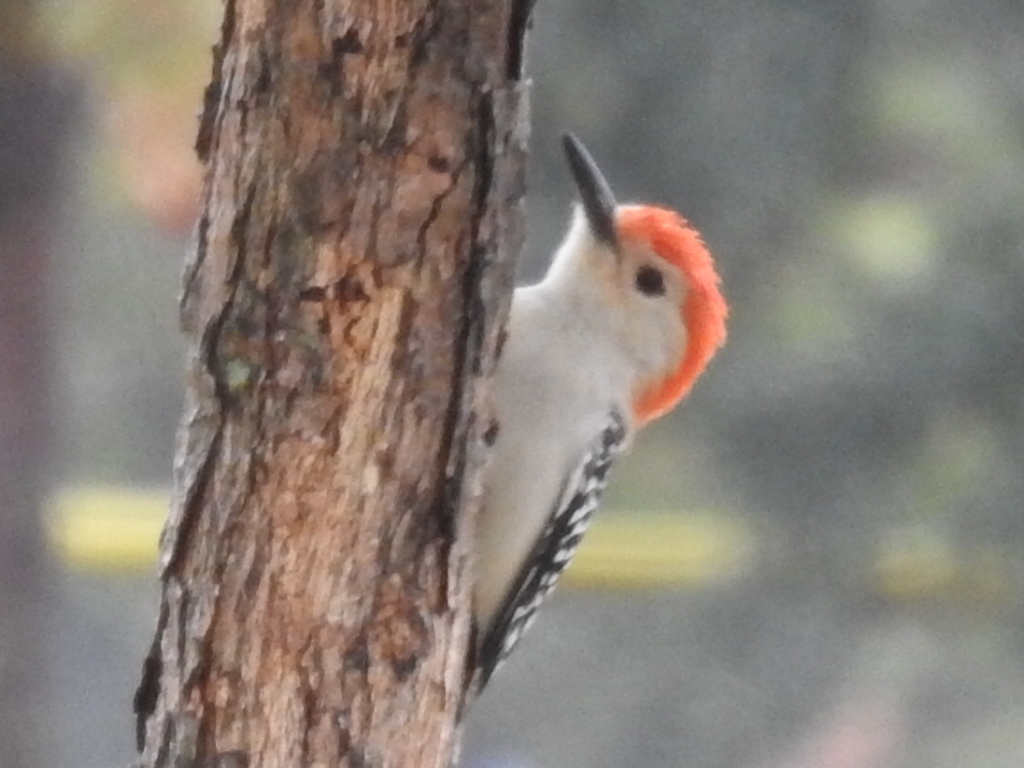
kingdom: Animalia
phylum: Chordata
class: Aves
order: Piciformes
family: Picidae
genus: Melanerpes
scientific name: Melanerpes carolinus
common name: Red-bellied woodpecker
